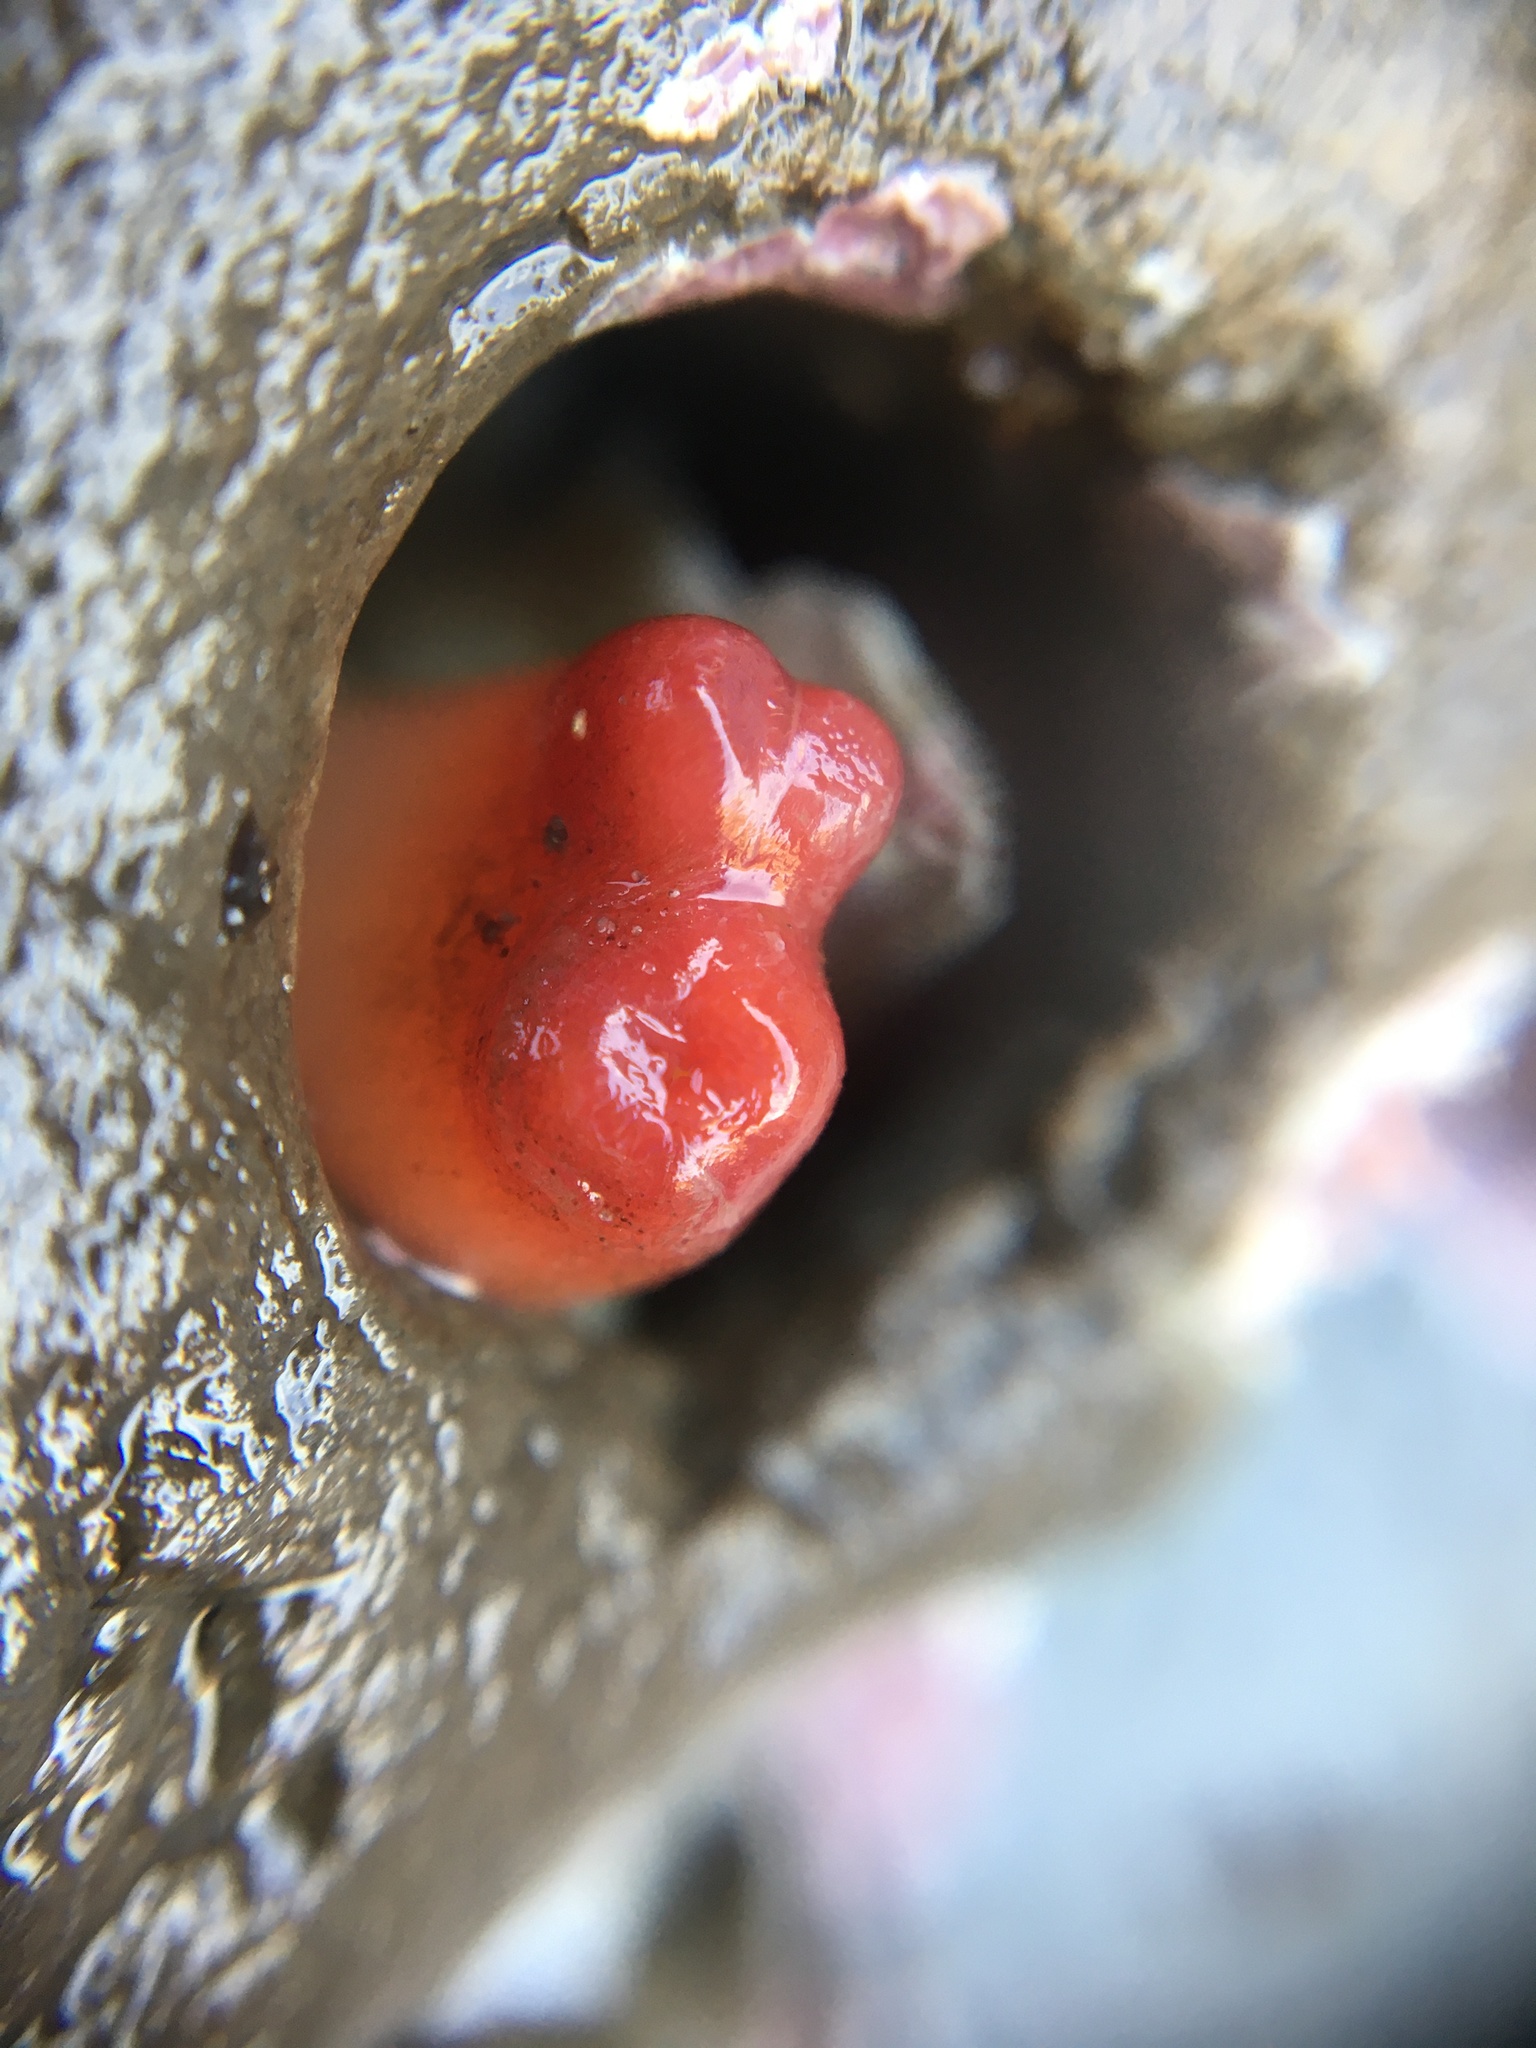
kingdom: Animalia
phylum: Mollusca
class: Bivalvia
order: Adapedonta
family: Hiatellidae
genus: Hiatella
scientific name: Hiatella arctica
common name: Arctic hiatella
